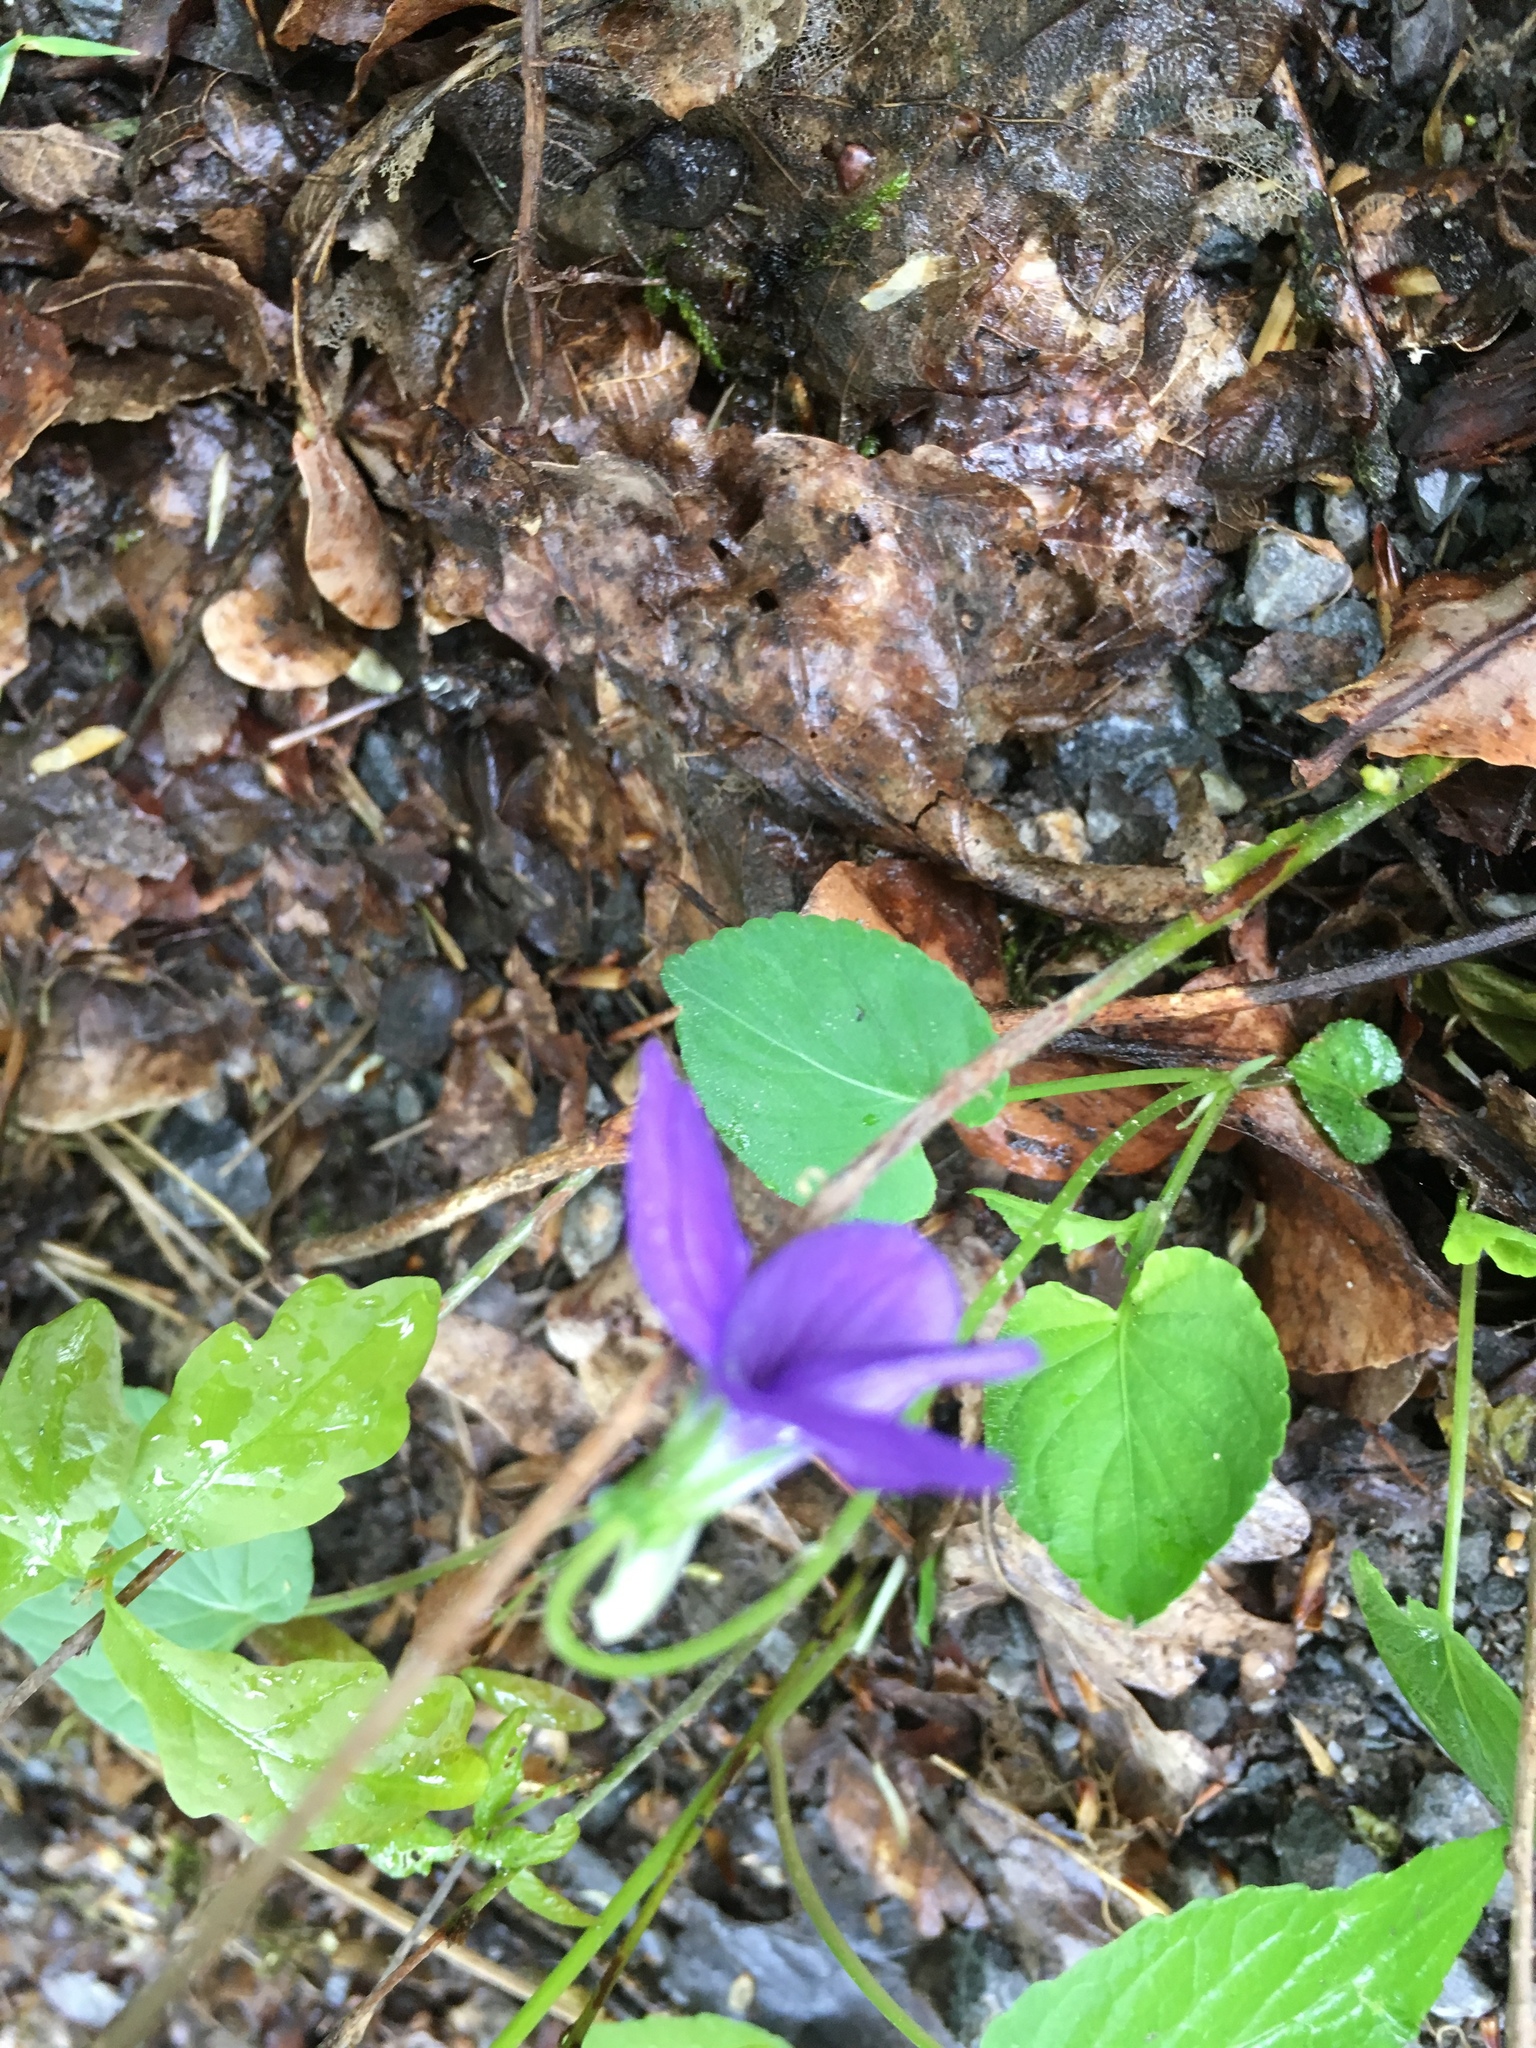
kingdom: Plantae
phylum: Tracheophyta
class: Magnoliopsida
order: Malpighiales
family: Violaceae
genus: Viola
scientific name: Viola riviniana
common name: Common dog-violet
